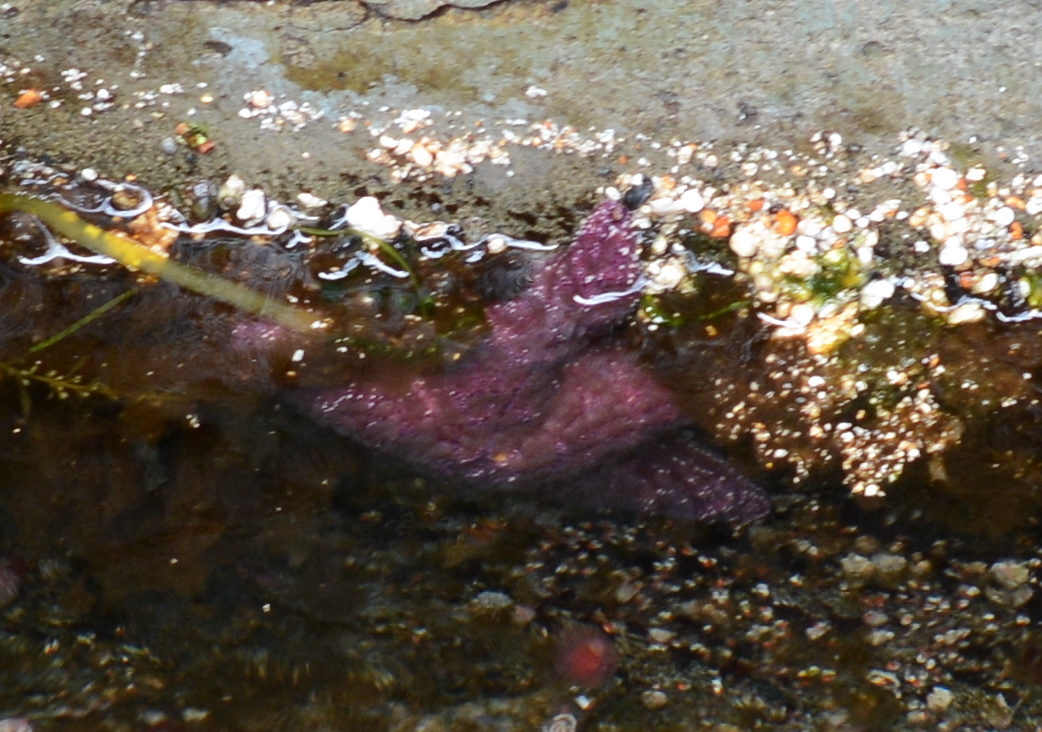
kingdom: Animalia
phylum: Echinodermata
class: Asteroidea
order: Forcipulatida
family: Asteriidae
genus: Pisaster
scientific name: Pisaster ochraceus
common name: Ochre stars
